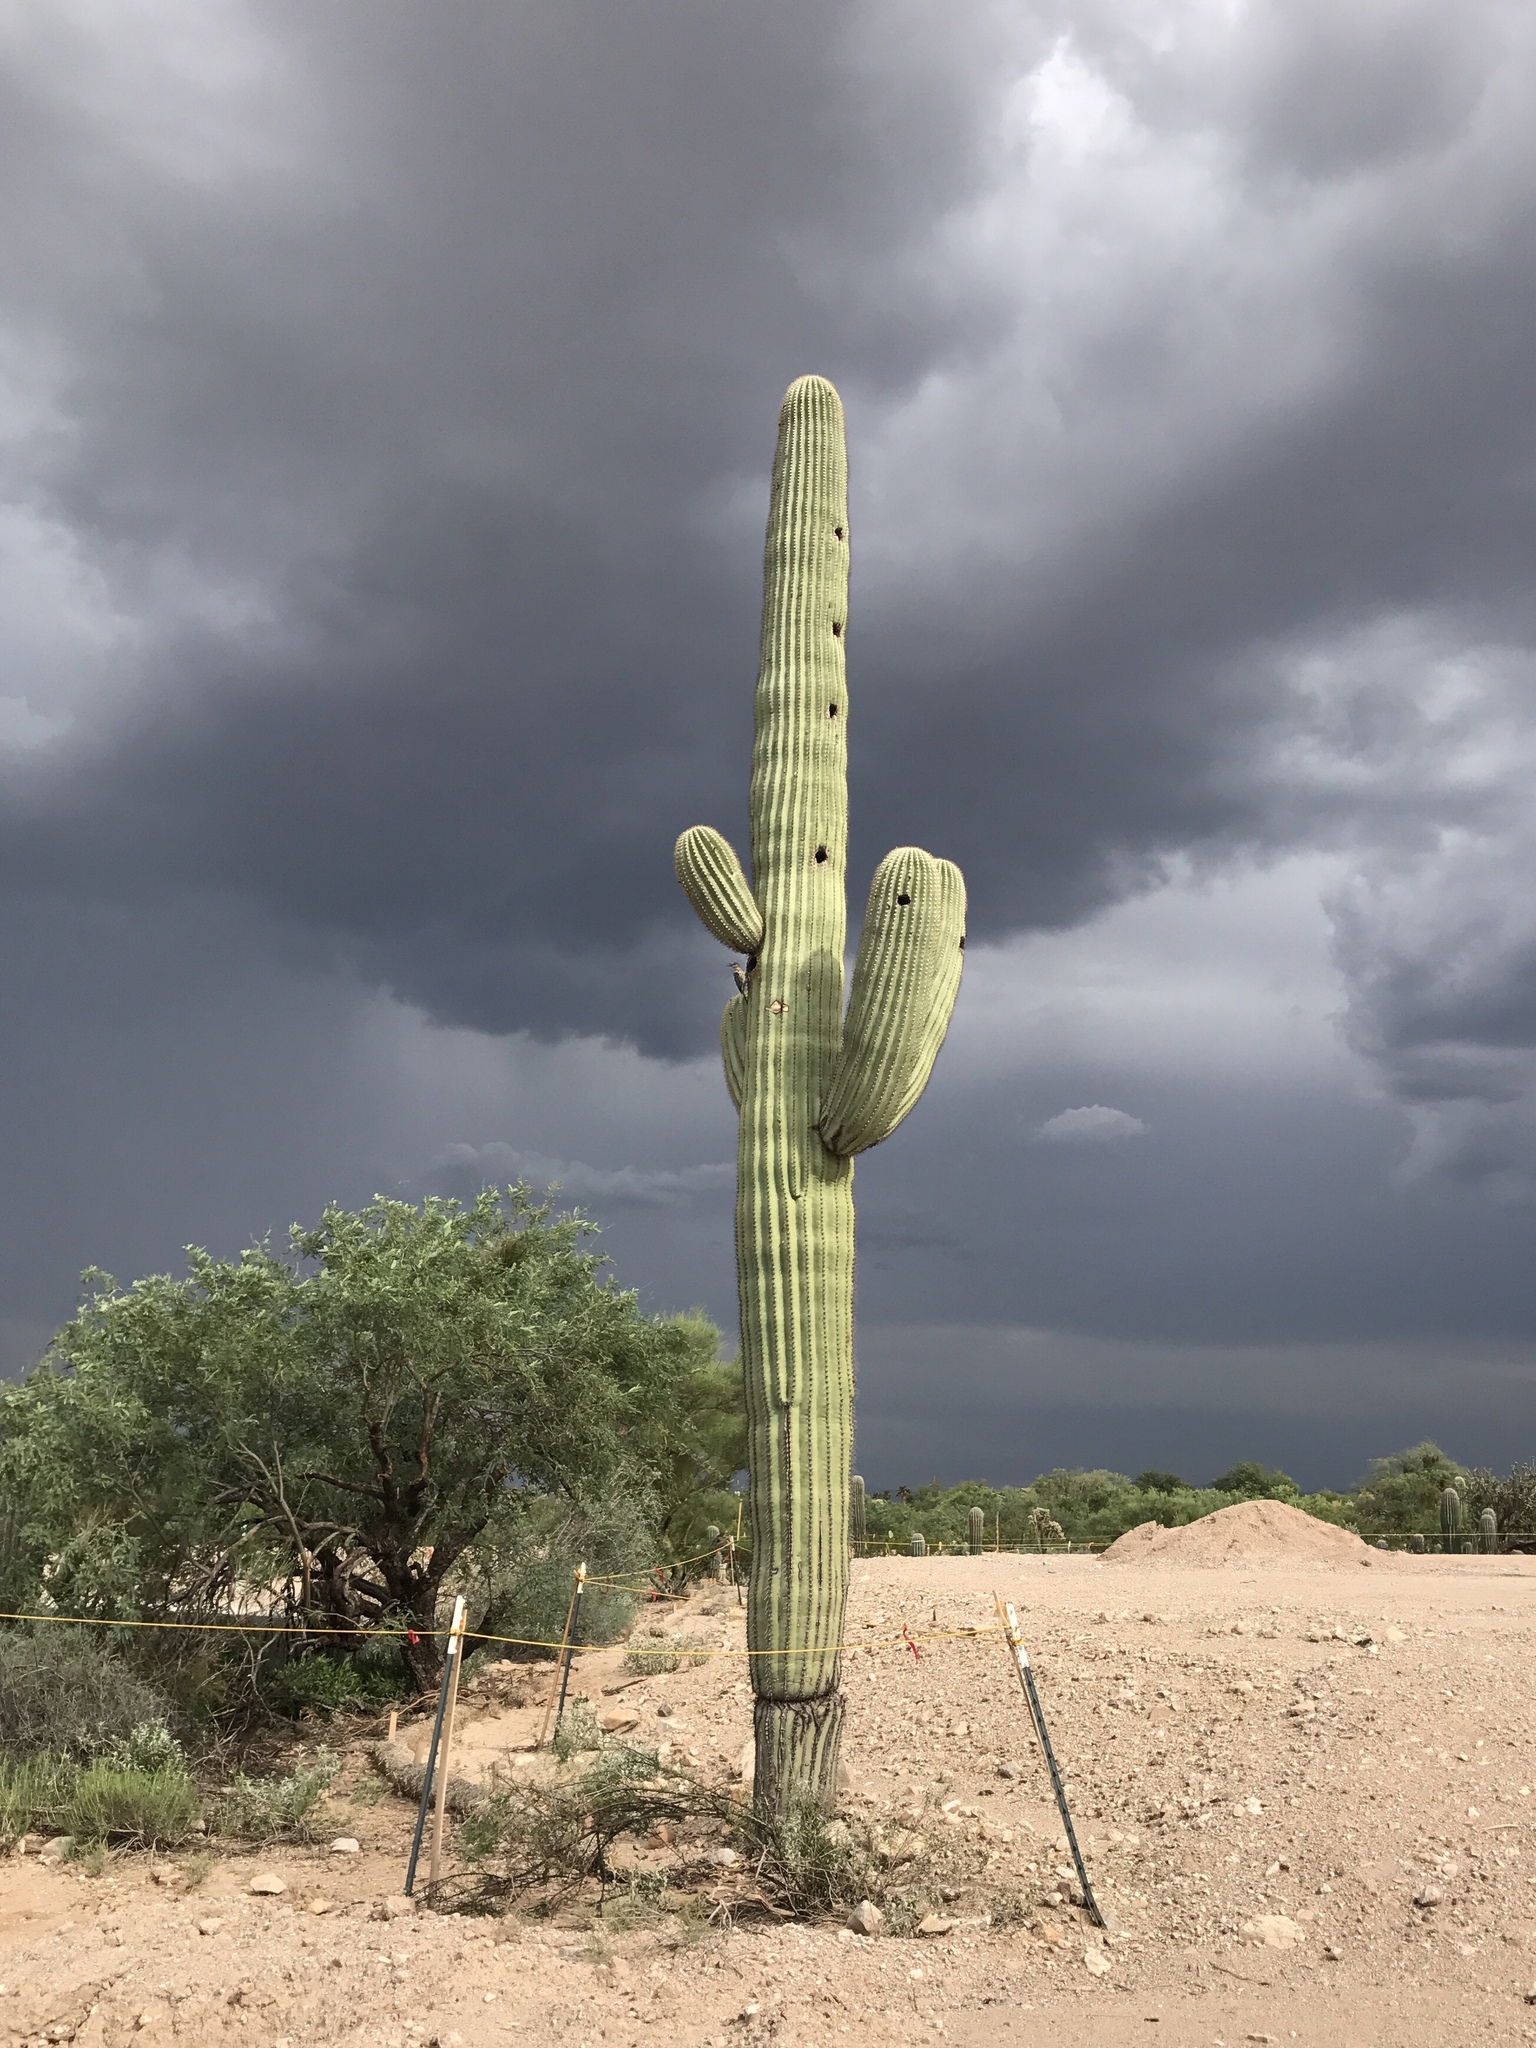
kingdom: Plantae
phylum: Tracheophyta
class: Magnoliopsida
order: Caryophyllales
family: Cactaceae
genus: Carnegiea
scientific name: Carnegiea gigantea
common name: Saguaro
